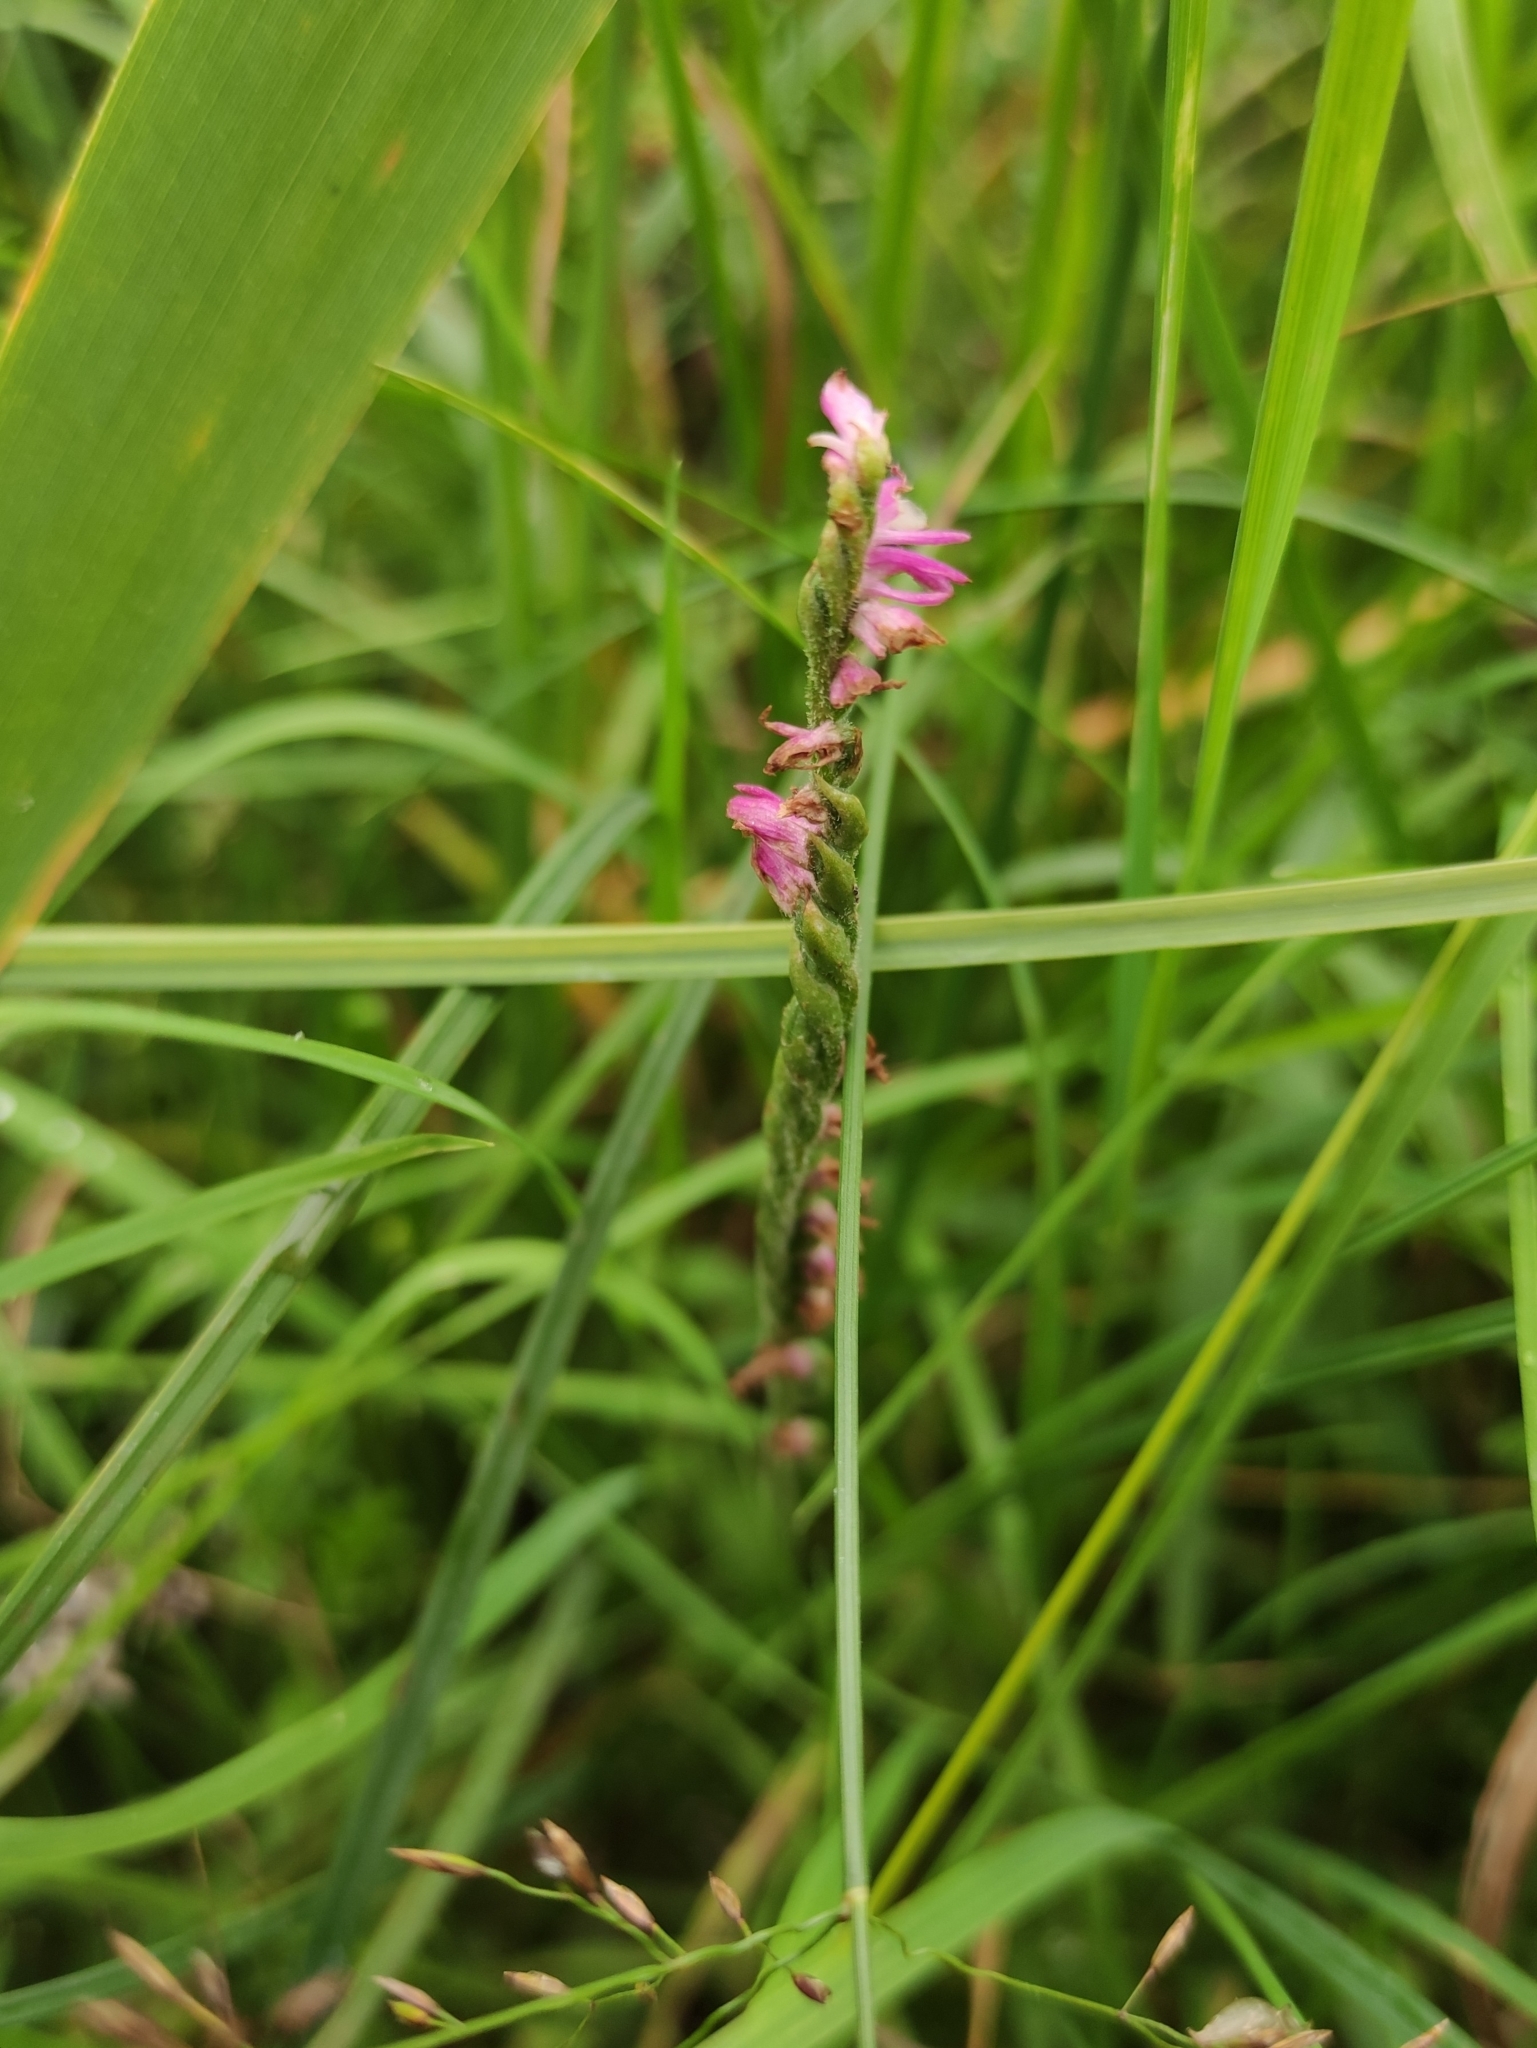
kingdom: Plantae
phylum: Tracheophyta
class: Liliopsida
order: Asparagales
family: Orchidaceae
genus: Spiranthes
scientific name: Spiranthes australis
